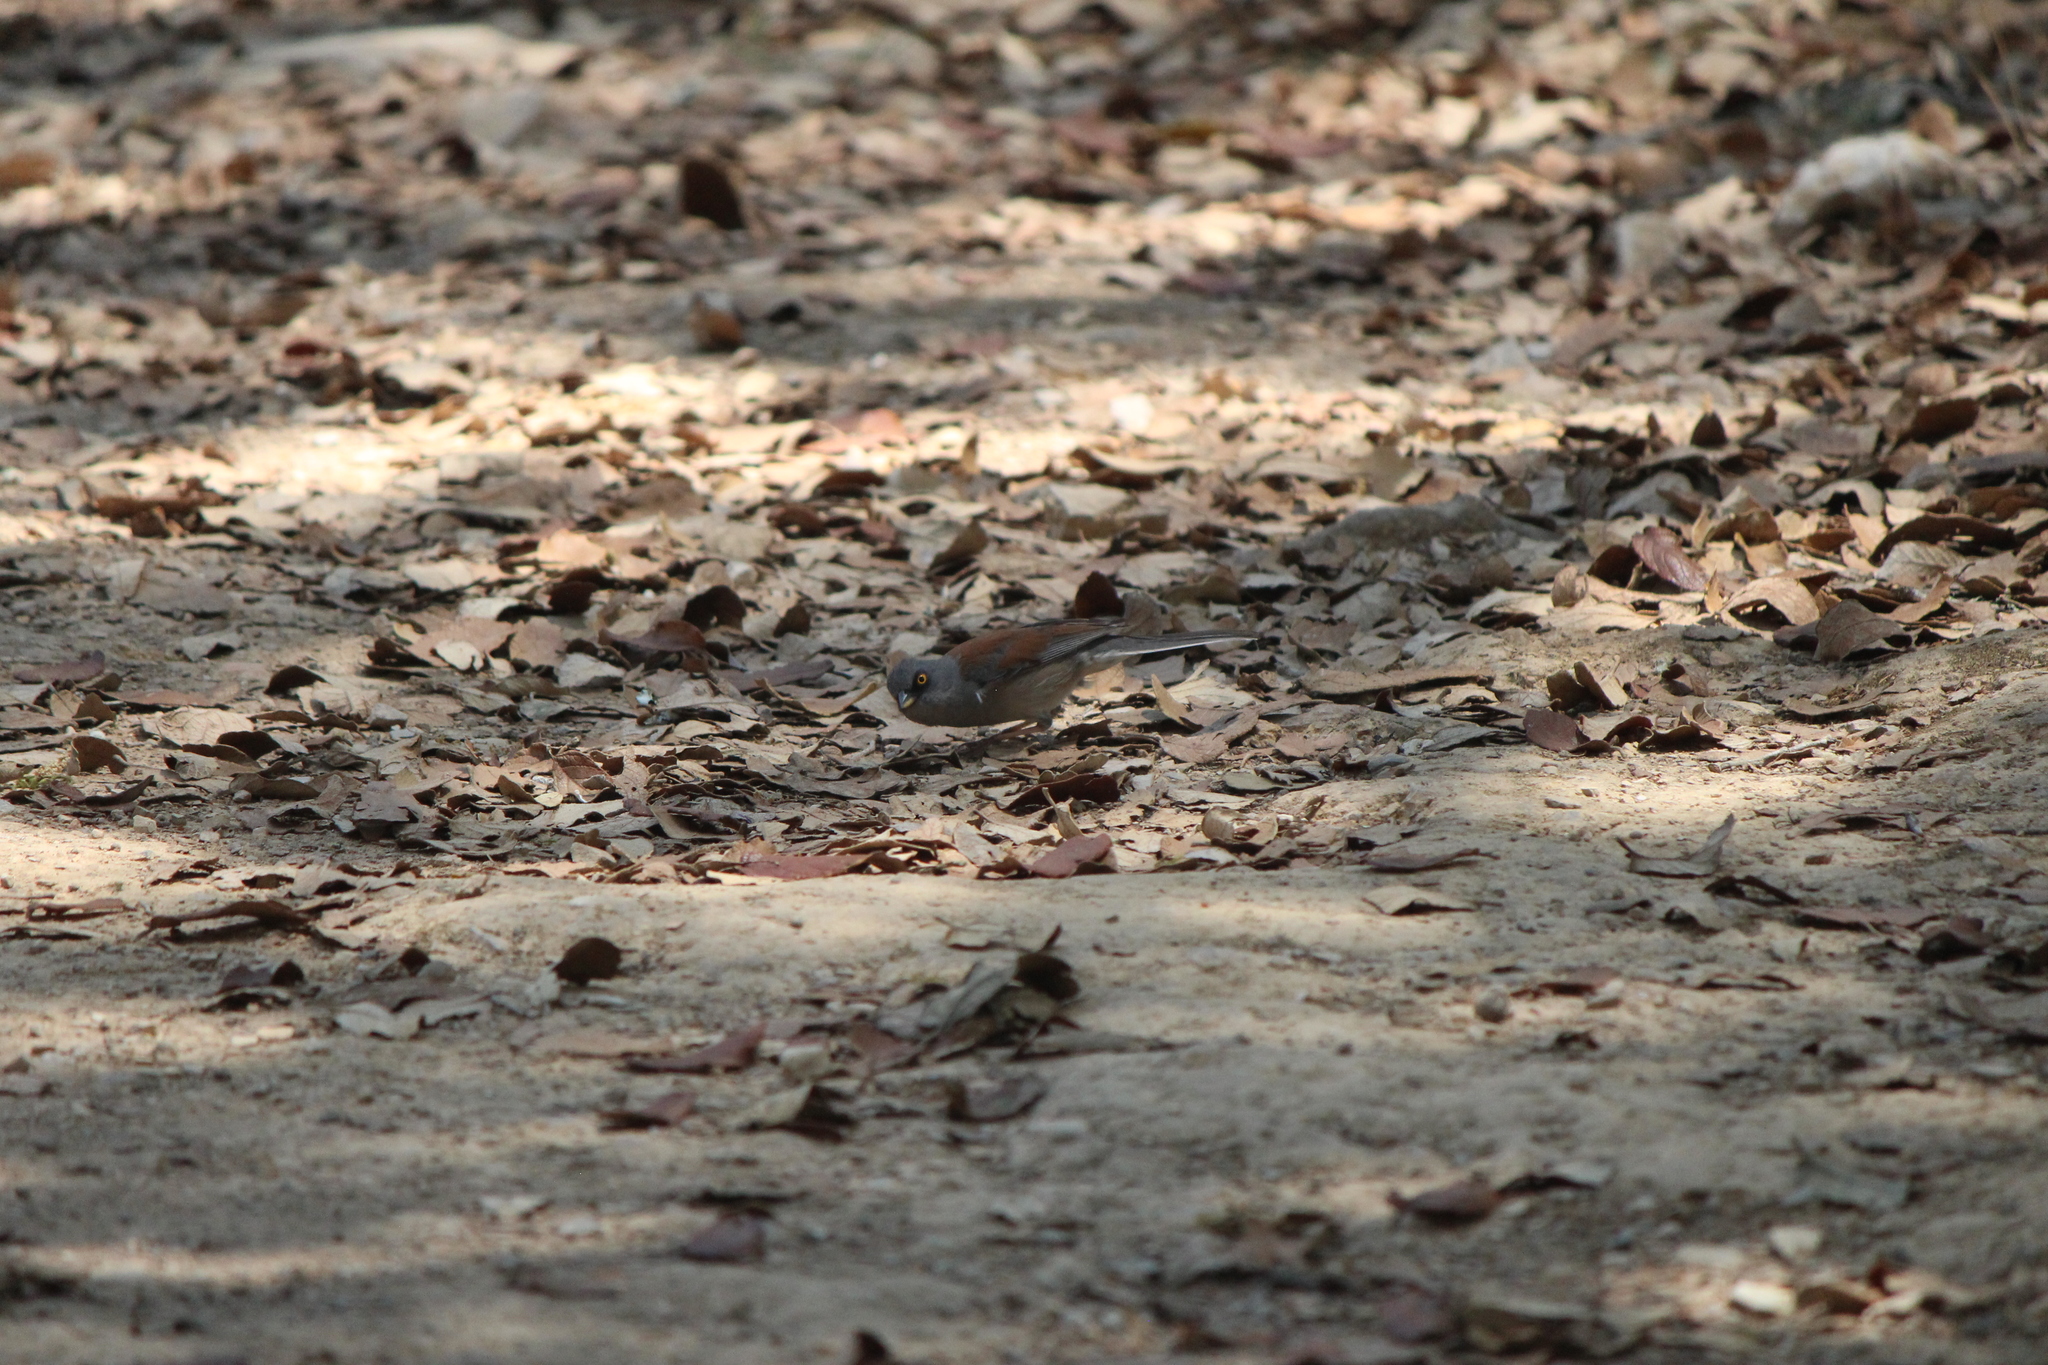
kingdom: Animalia
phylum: Chordata
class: Aves
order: Passeriformes
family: Passerellidae
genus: Junco
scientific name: Junco phaeonotus
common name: Yellow-eyed junco
